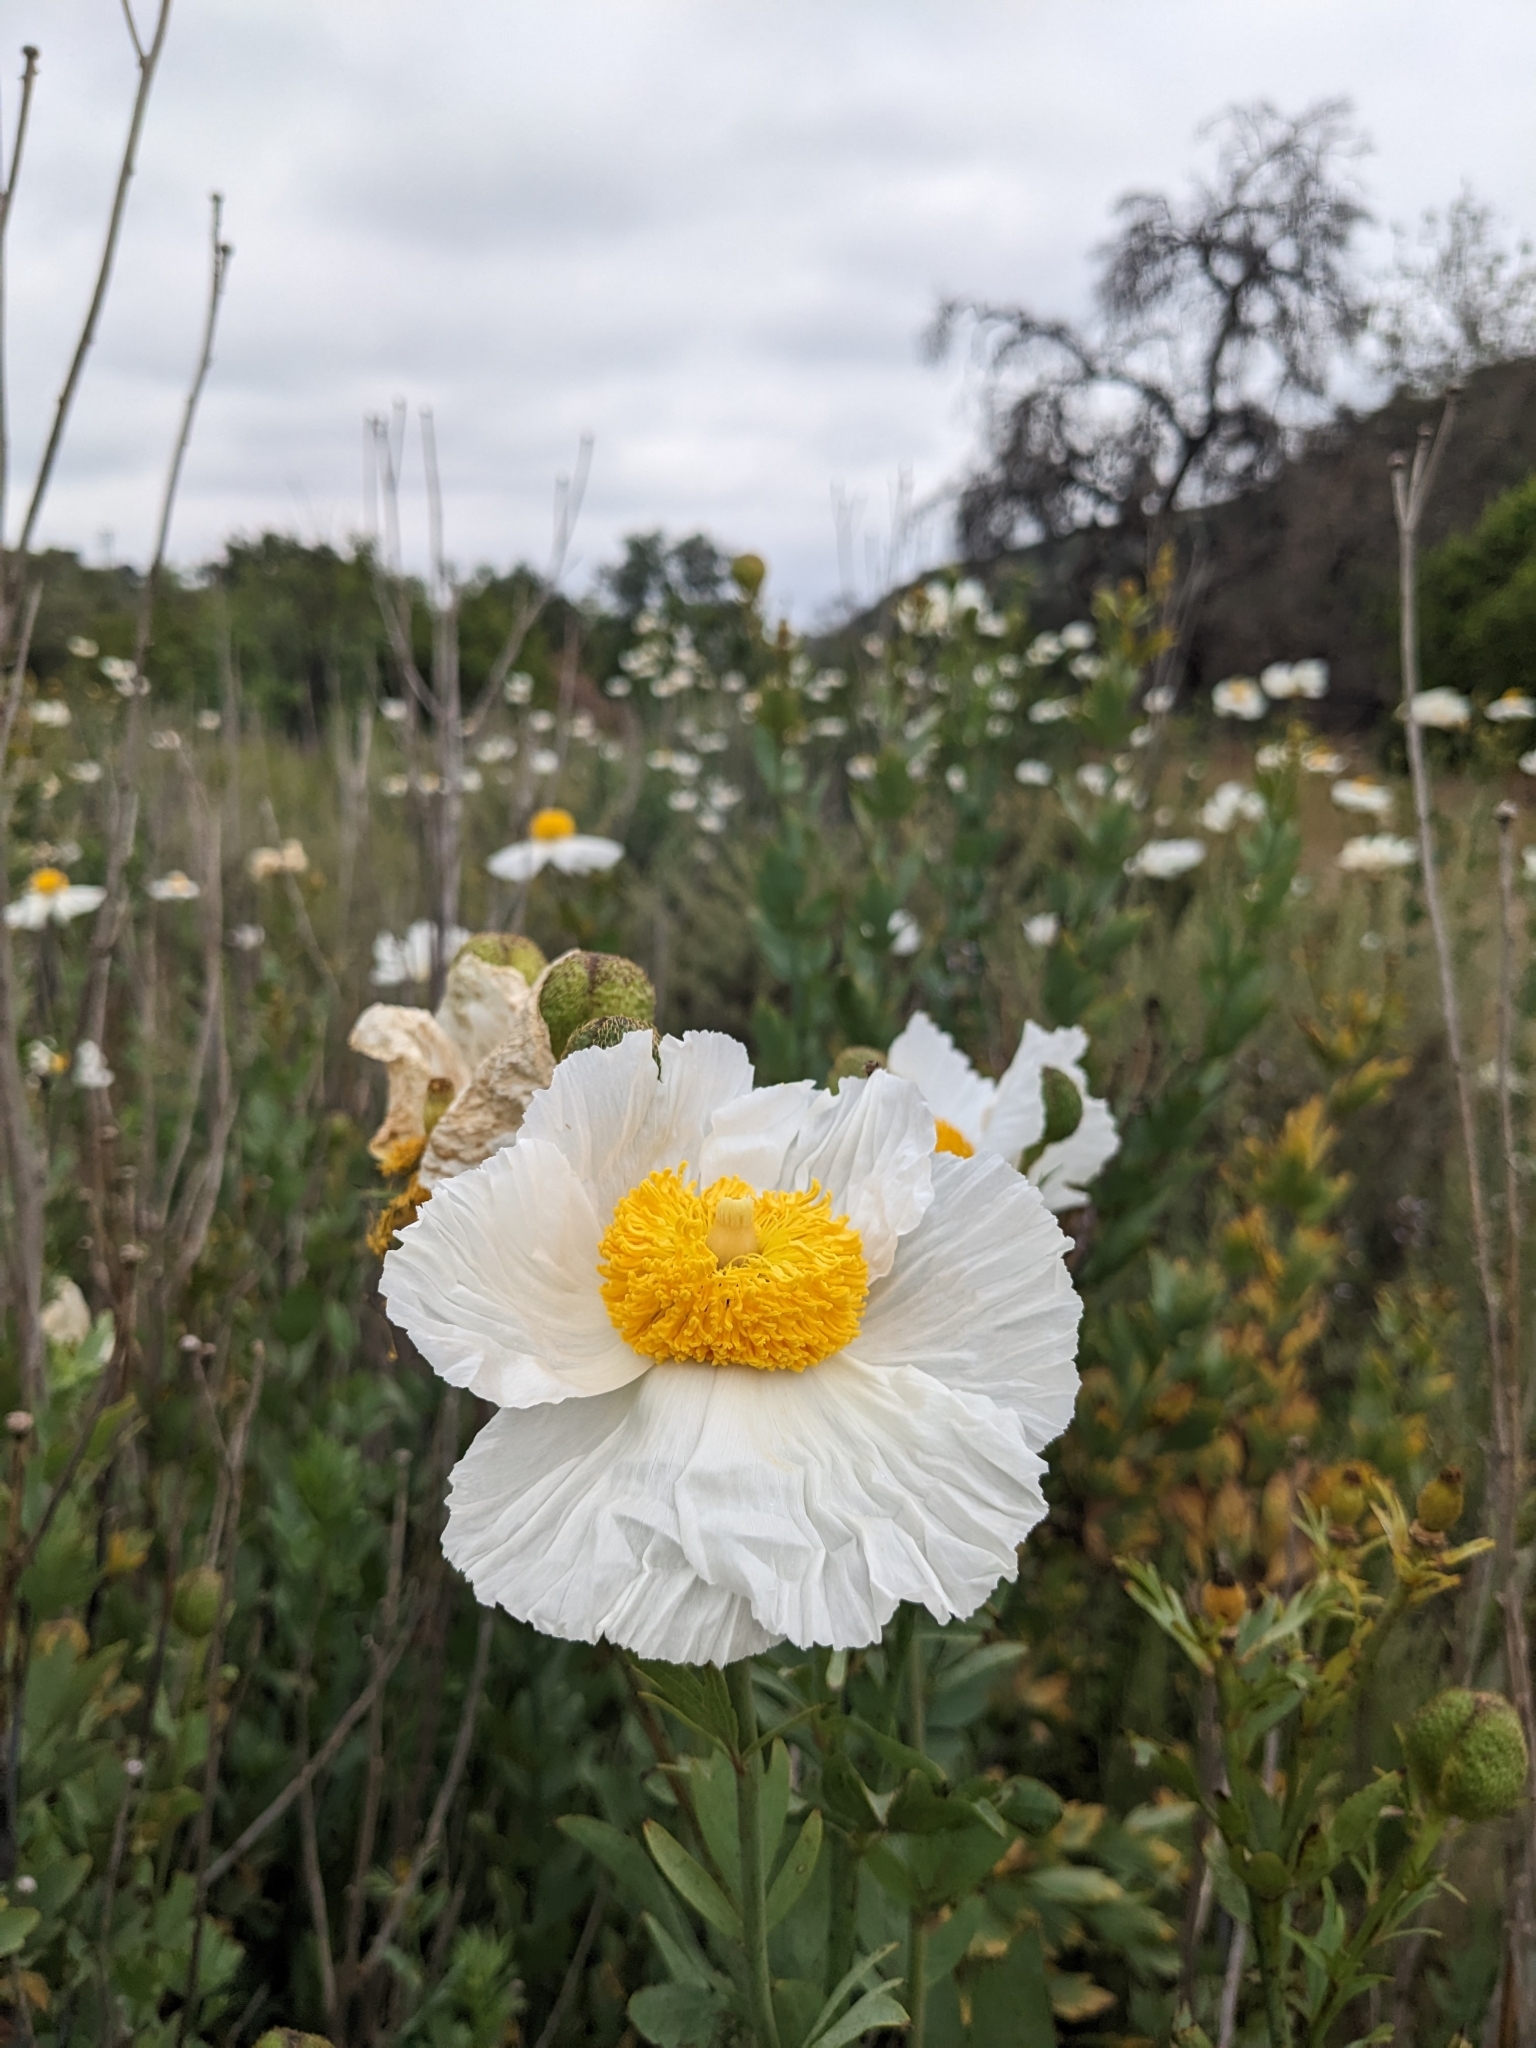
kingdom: Plantae
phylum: Tracheophyta
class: Magnoliopsida
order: Ranunculales
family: Papaveraceae
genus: Romneya
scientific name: Romneya trichocalyx
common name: Hairy matilija-poppy
